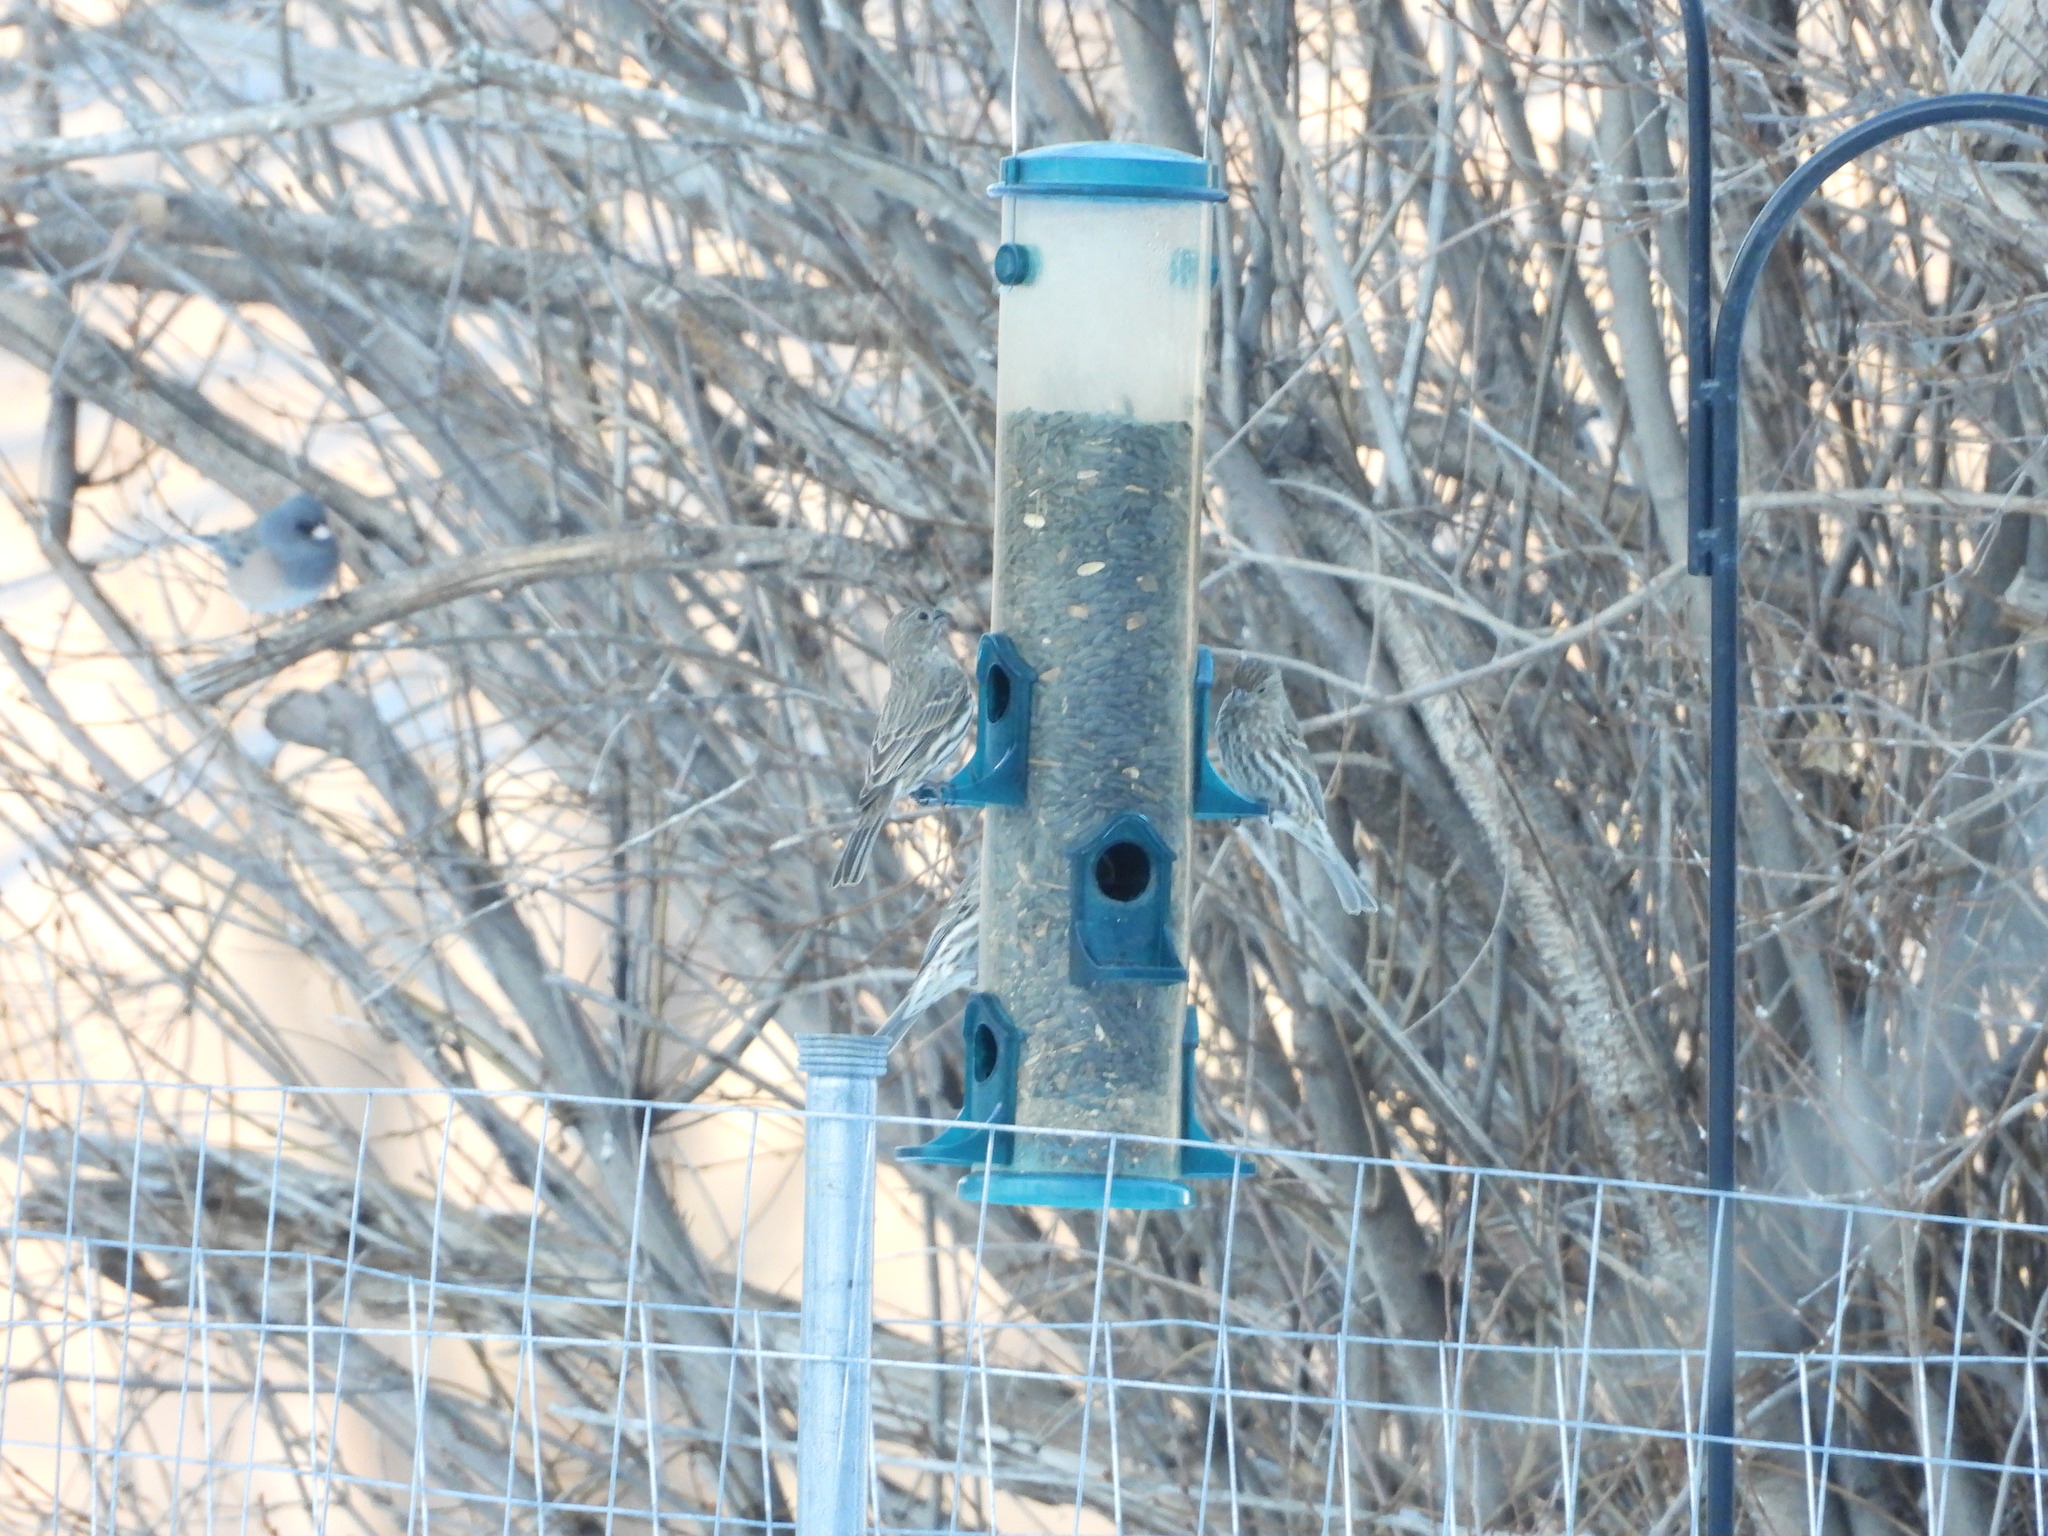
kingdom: Animalia
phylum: Chordata
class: Aves
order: Passeriformes
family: Fringillidae
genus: Haemorhous
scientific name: Haemorhous mexicanus
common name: House finch
